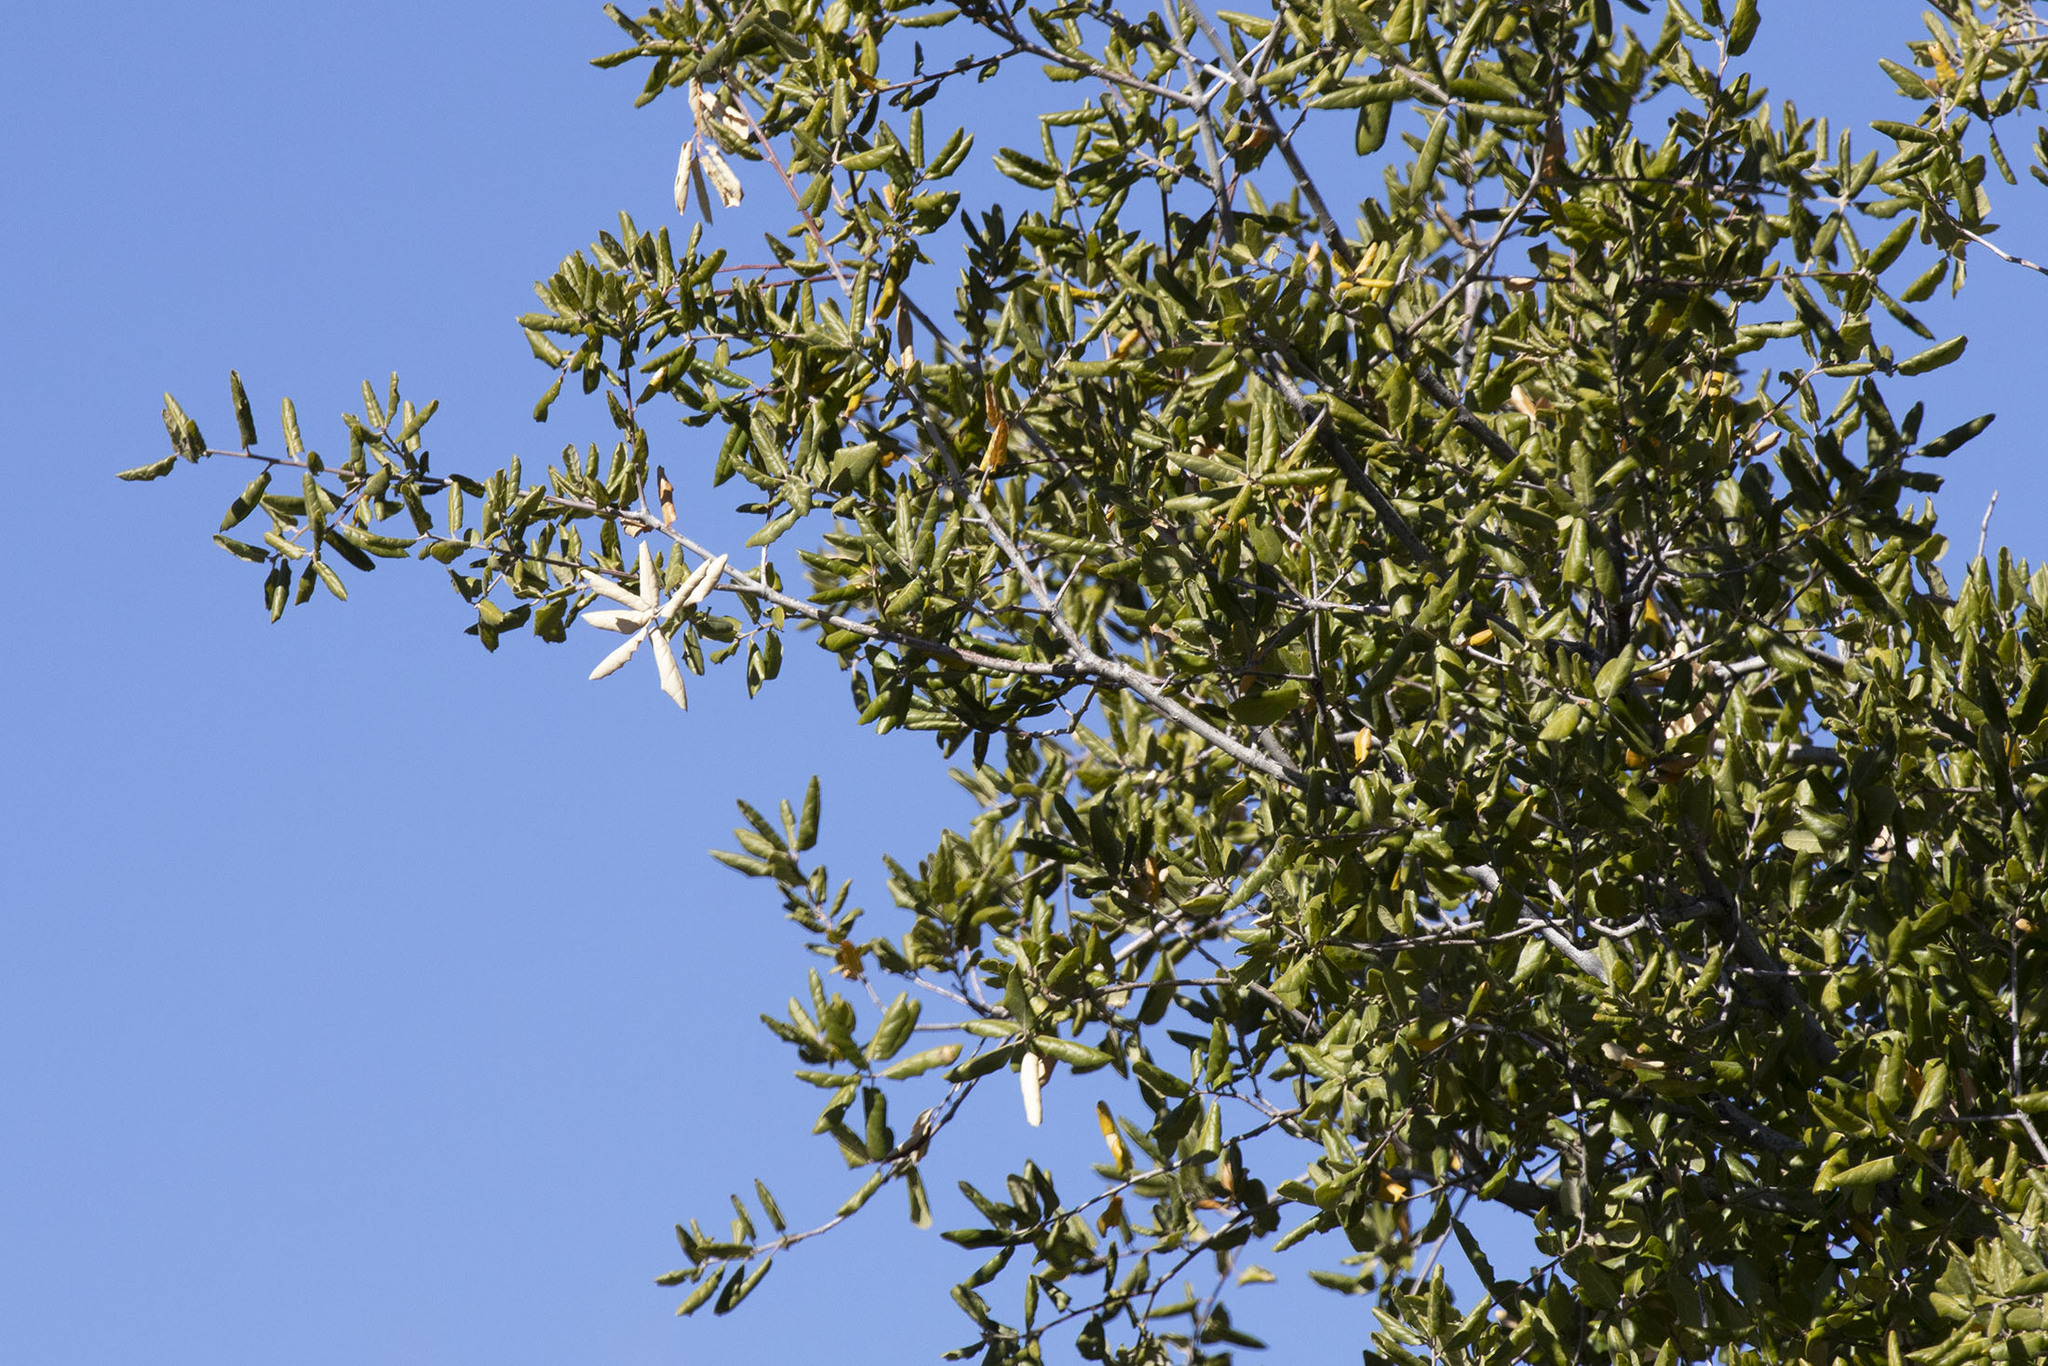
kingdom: Plantae
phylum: Tracheophyta
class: Magnoliopsida
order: Fagales
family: Fagaceae
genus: Quercus
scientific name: Quercus agrifolia
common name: California live oak
